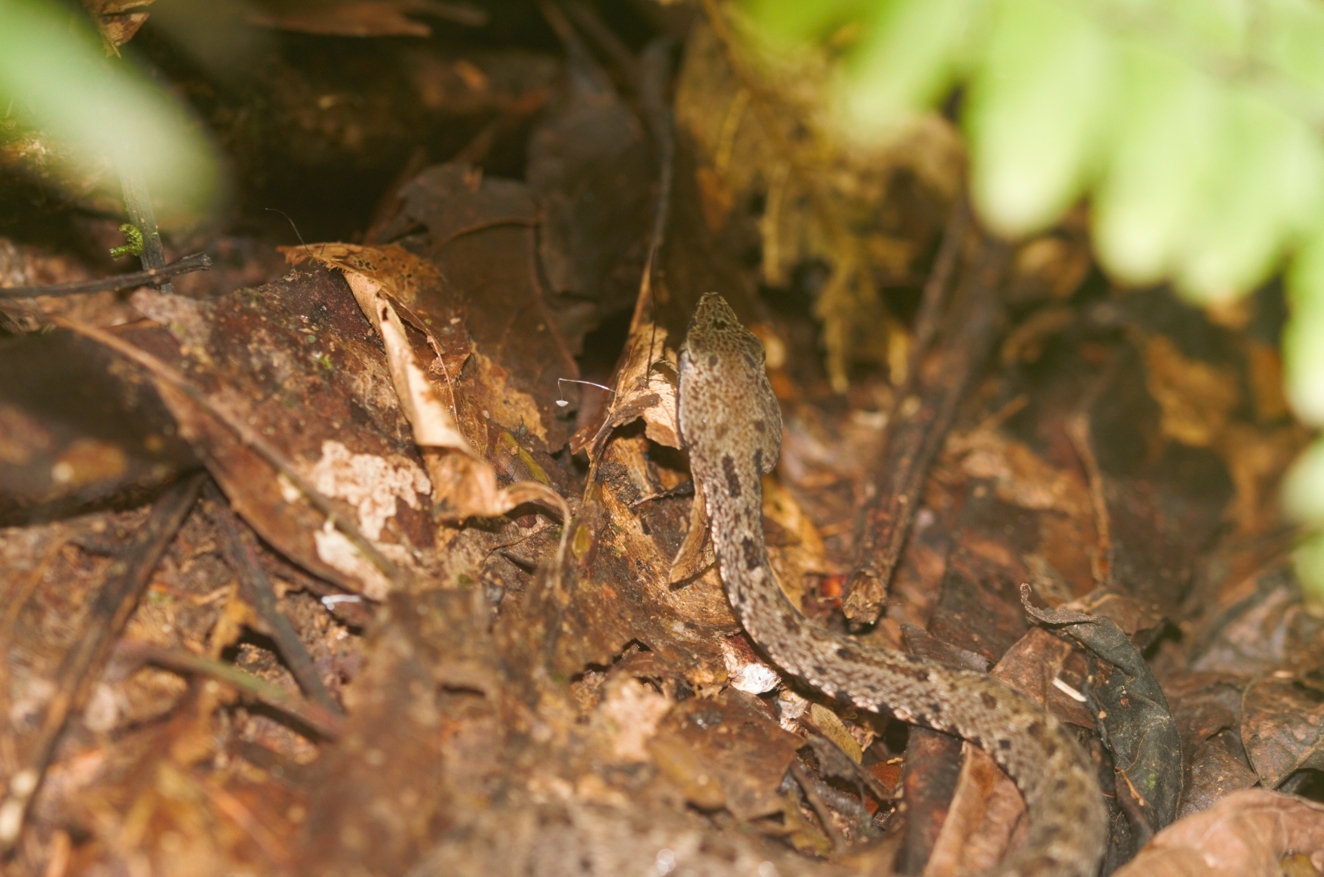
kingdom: Animalia
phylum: Chordata
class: Squamata
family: Viperidae
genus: Bothrops
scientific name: Bothrops atrox
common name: Common lancehead
